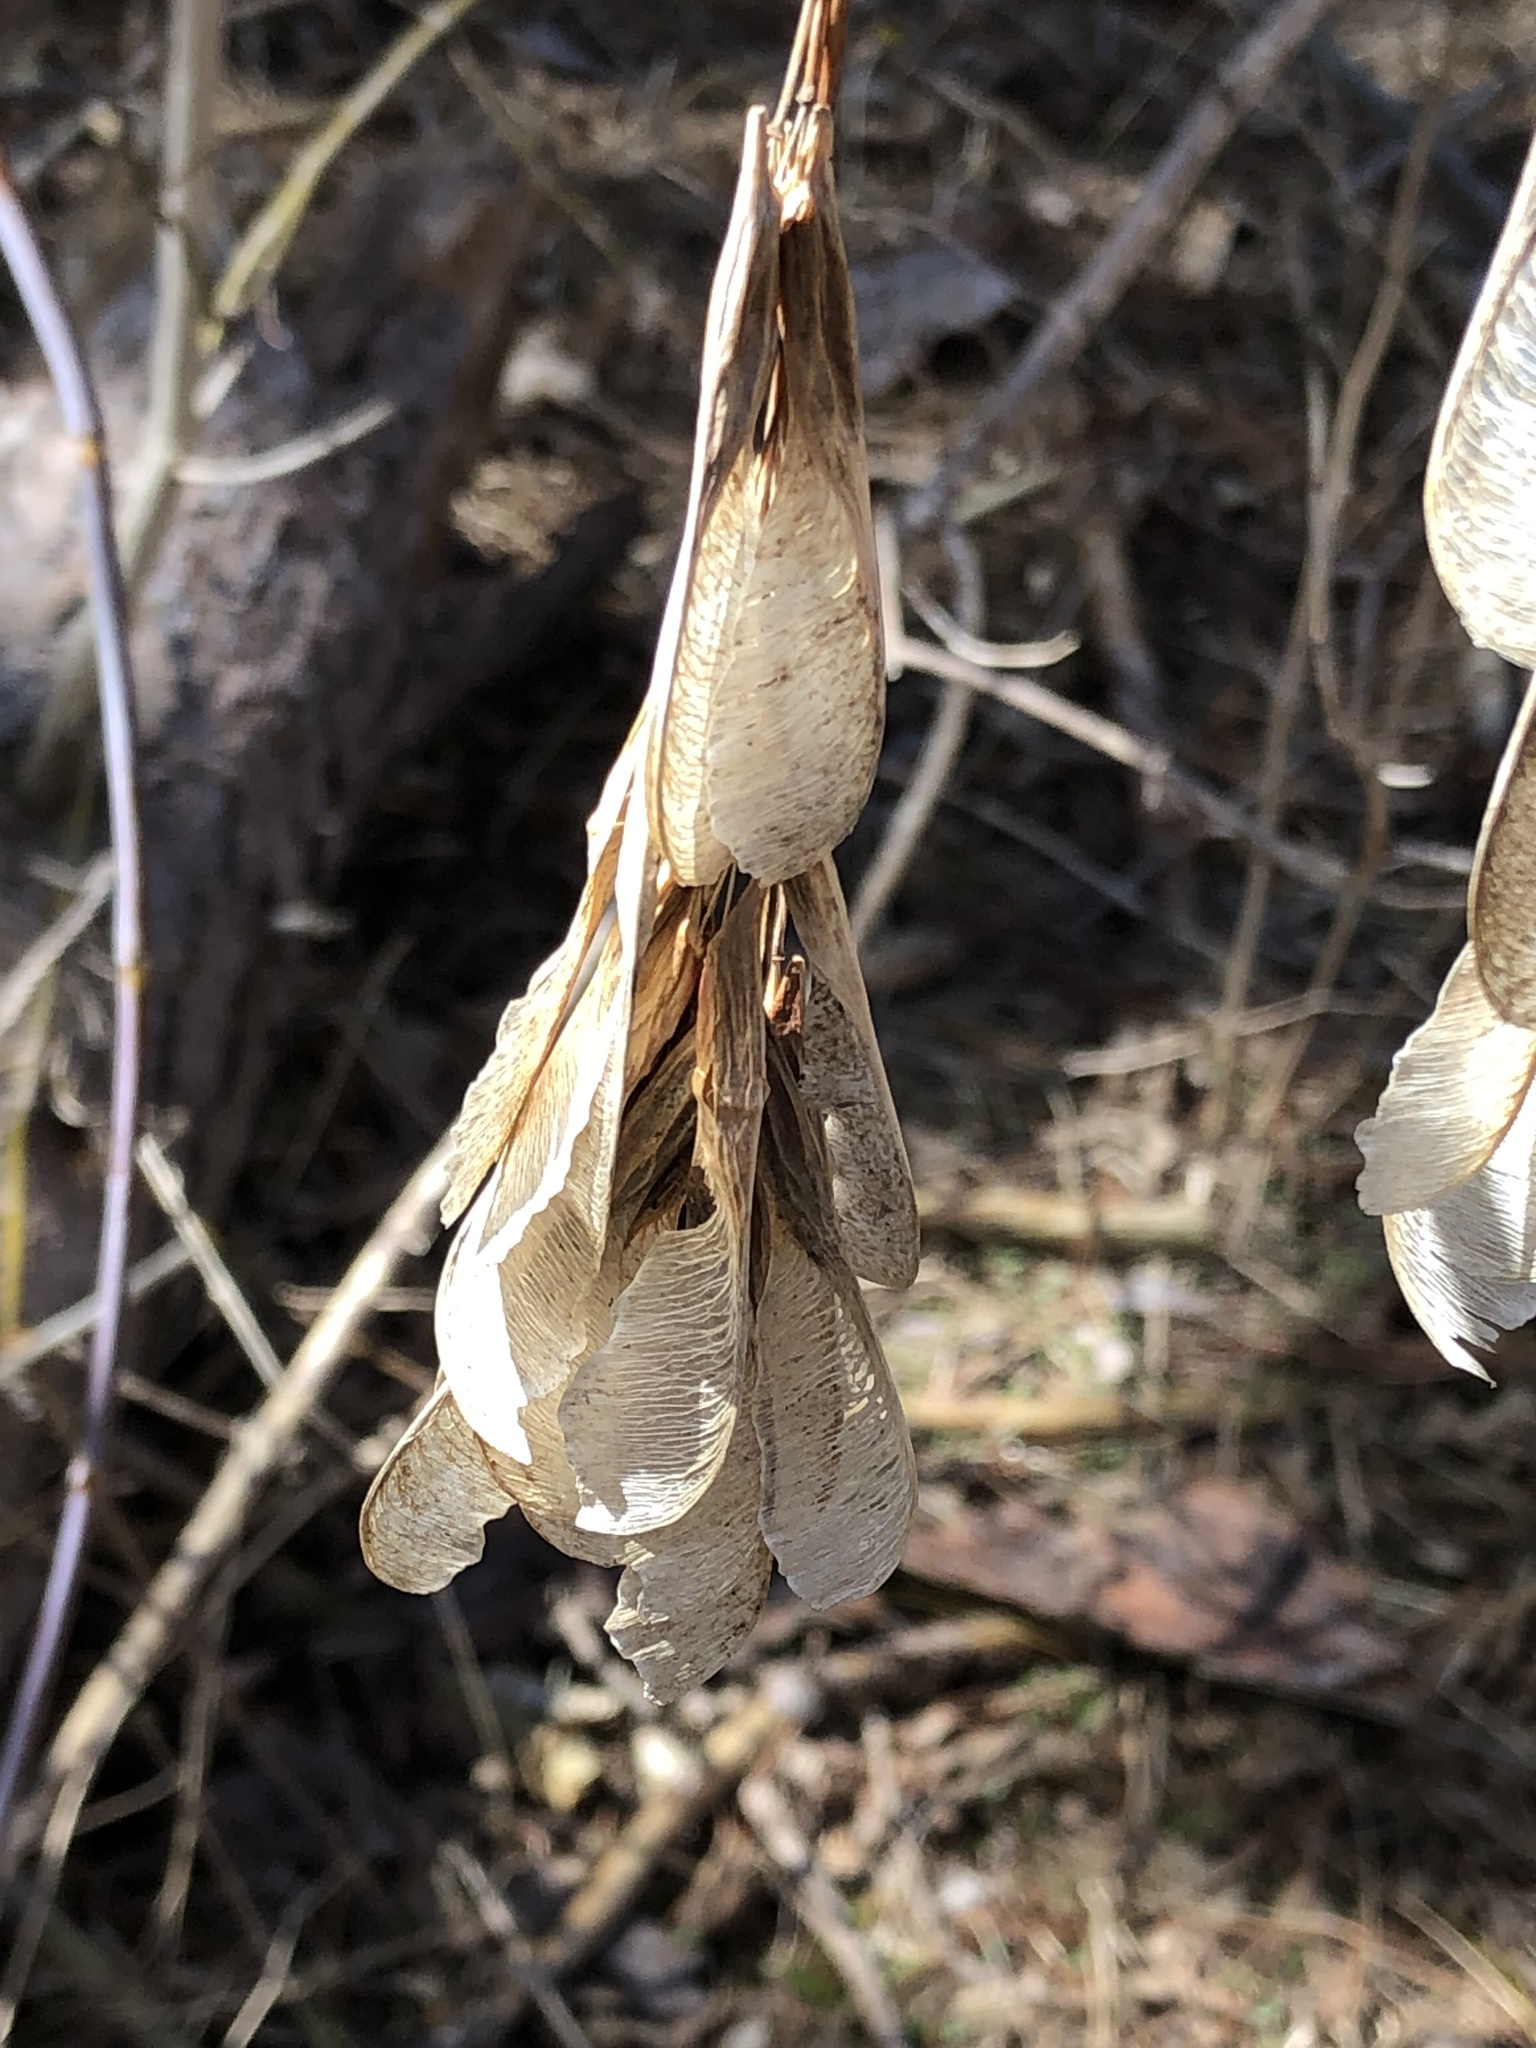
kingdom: Plantae
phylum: Tracheophyta
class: Magnoliopsida
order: Sapindales
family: Sapindaceae
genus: Acer
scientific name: Acer negundo
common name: Ashleaf maple
